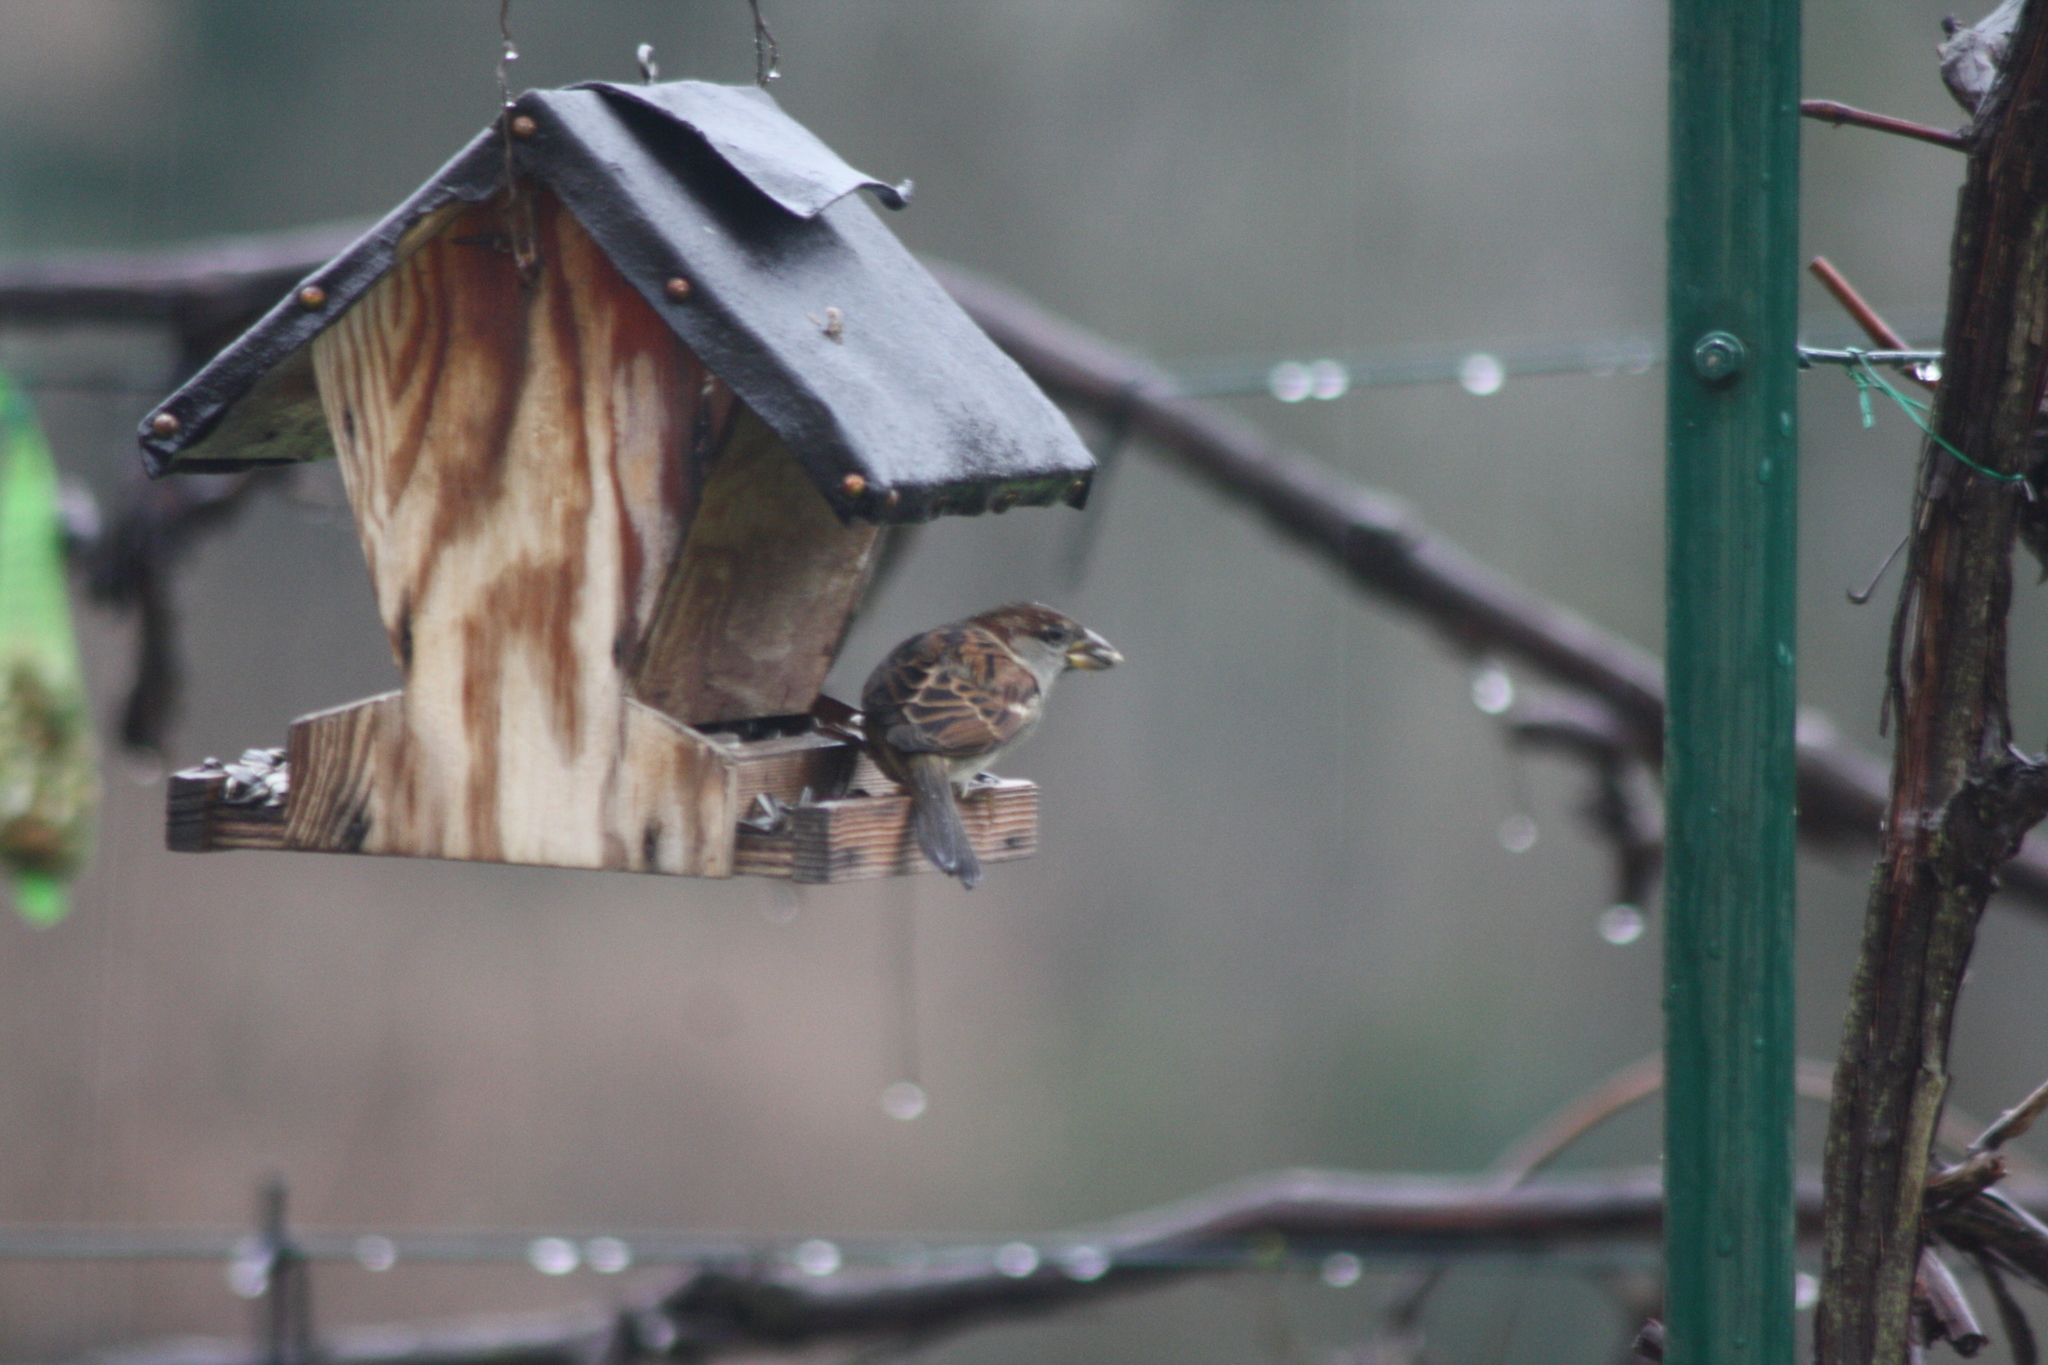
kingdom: Animalia
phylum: Chordata
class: Aves
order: Passeriformes
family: Passeridae
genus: Passer
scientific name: Passer domesticus
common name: House sparrow
